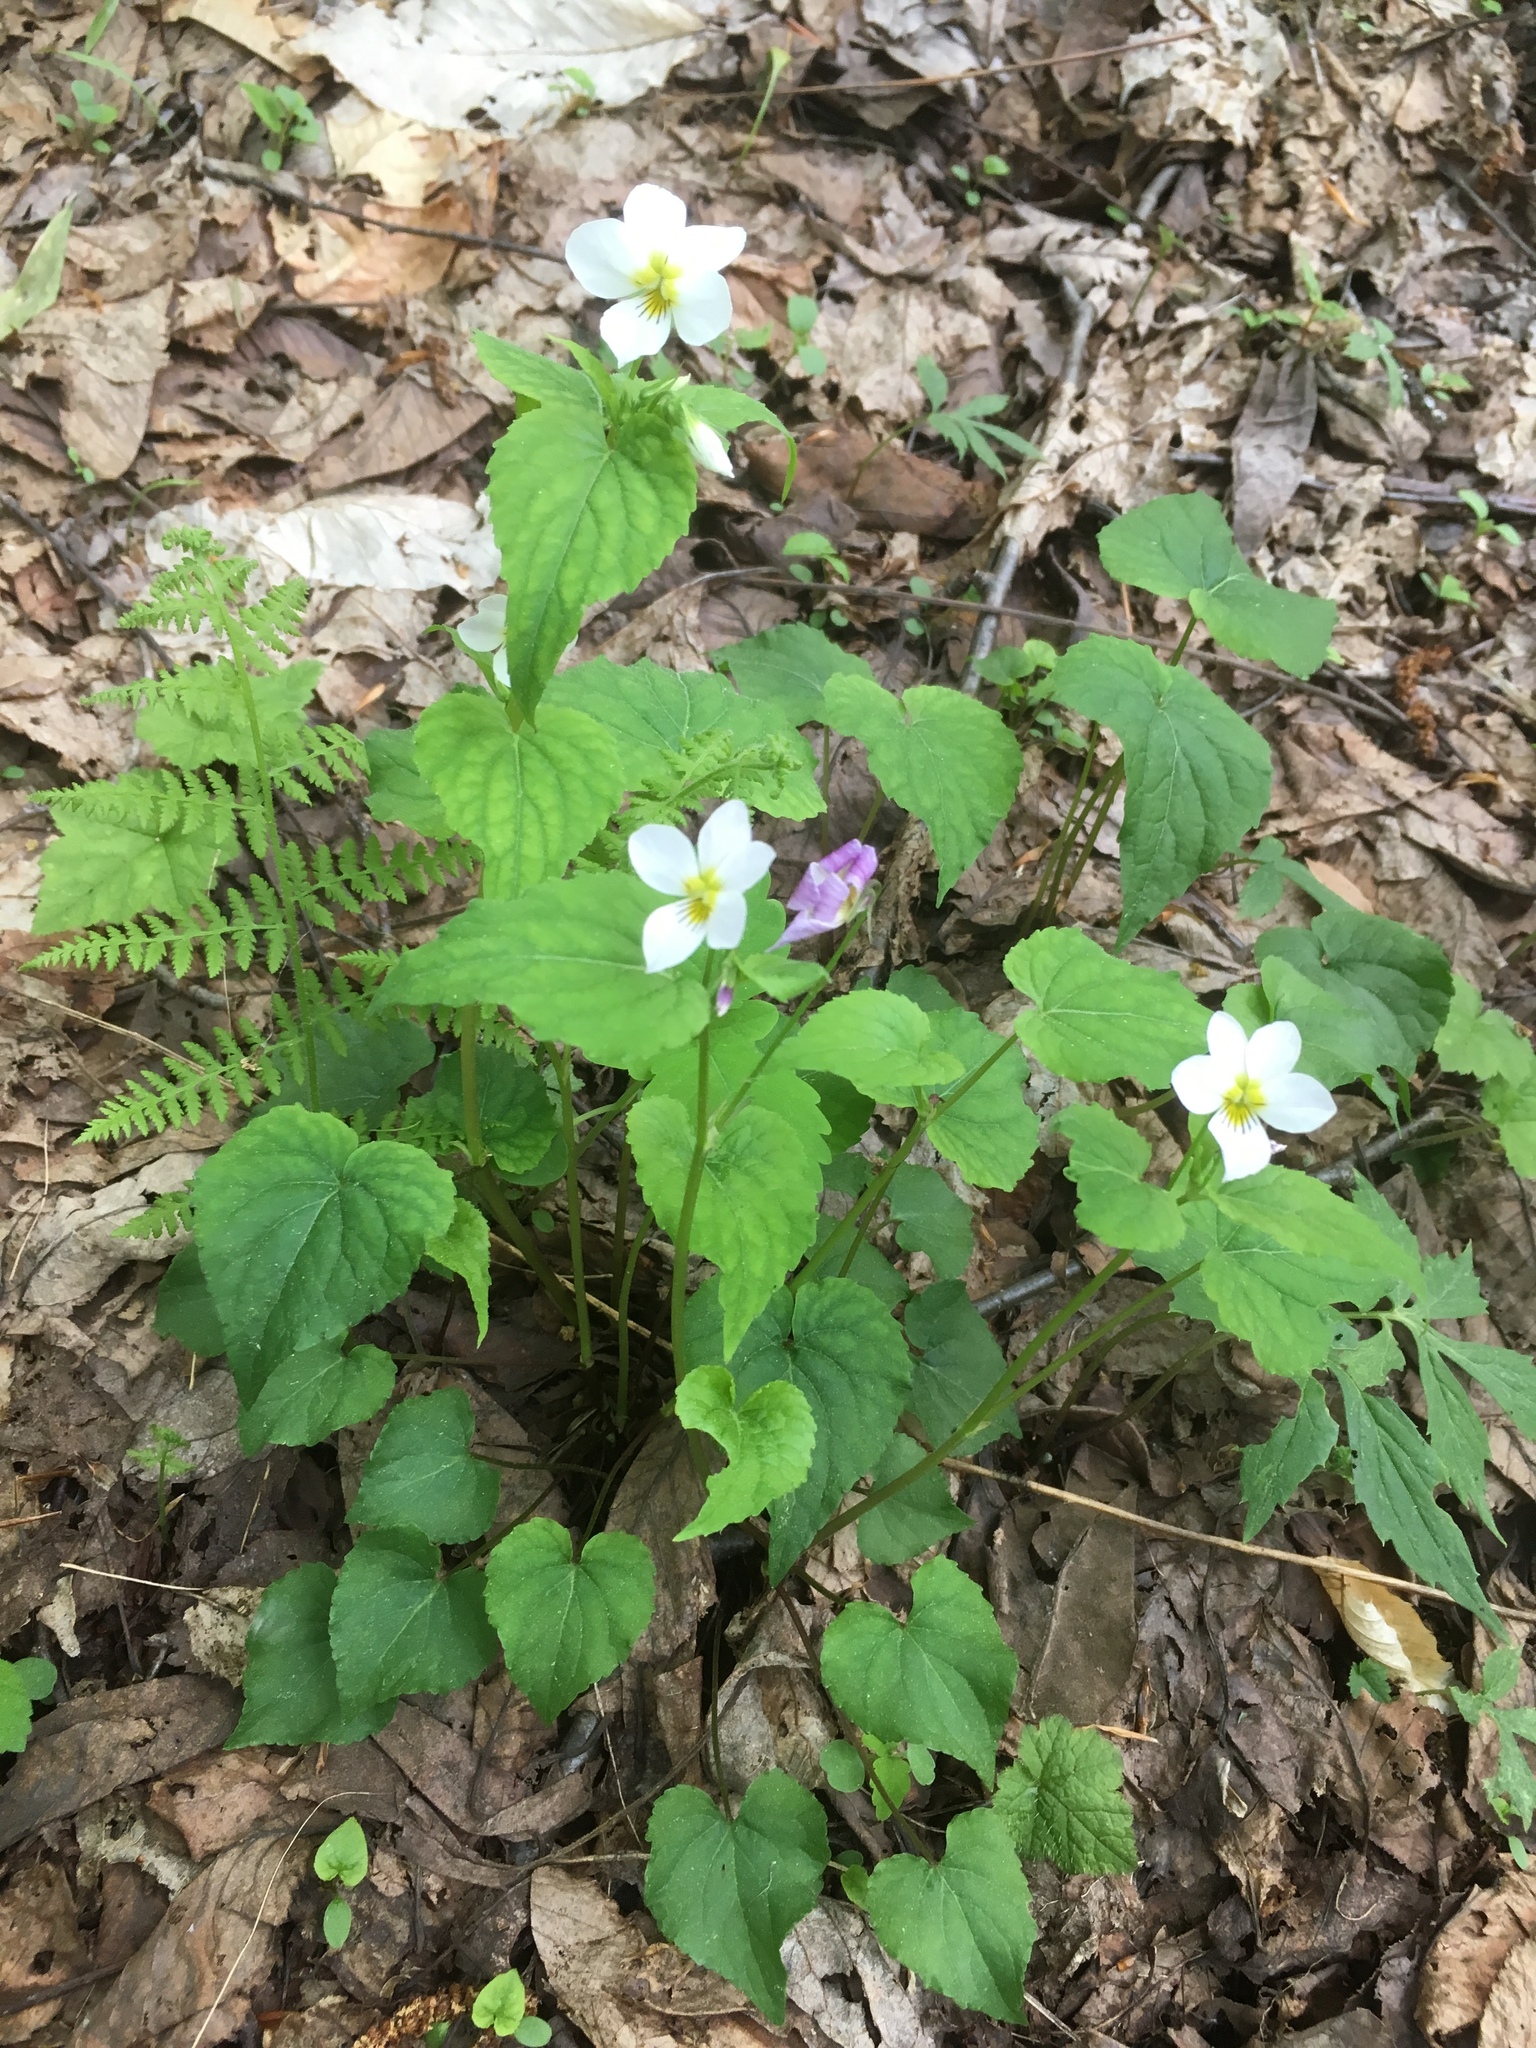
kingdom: Plantae
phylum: Tracheophyta
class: Magnoliopsida
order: Malpighiales
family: Violaceae
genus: Viola
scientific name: Viola canadensis
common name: Canada violet
